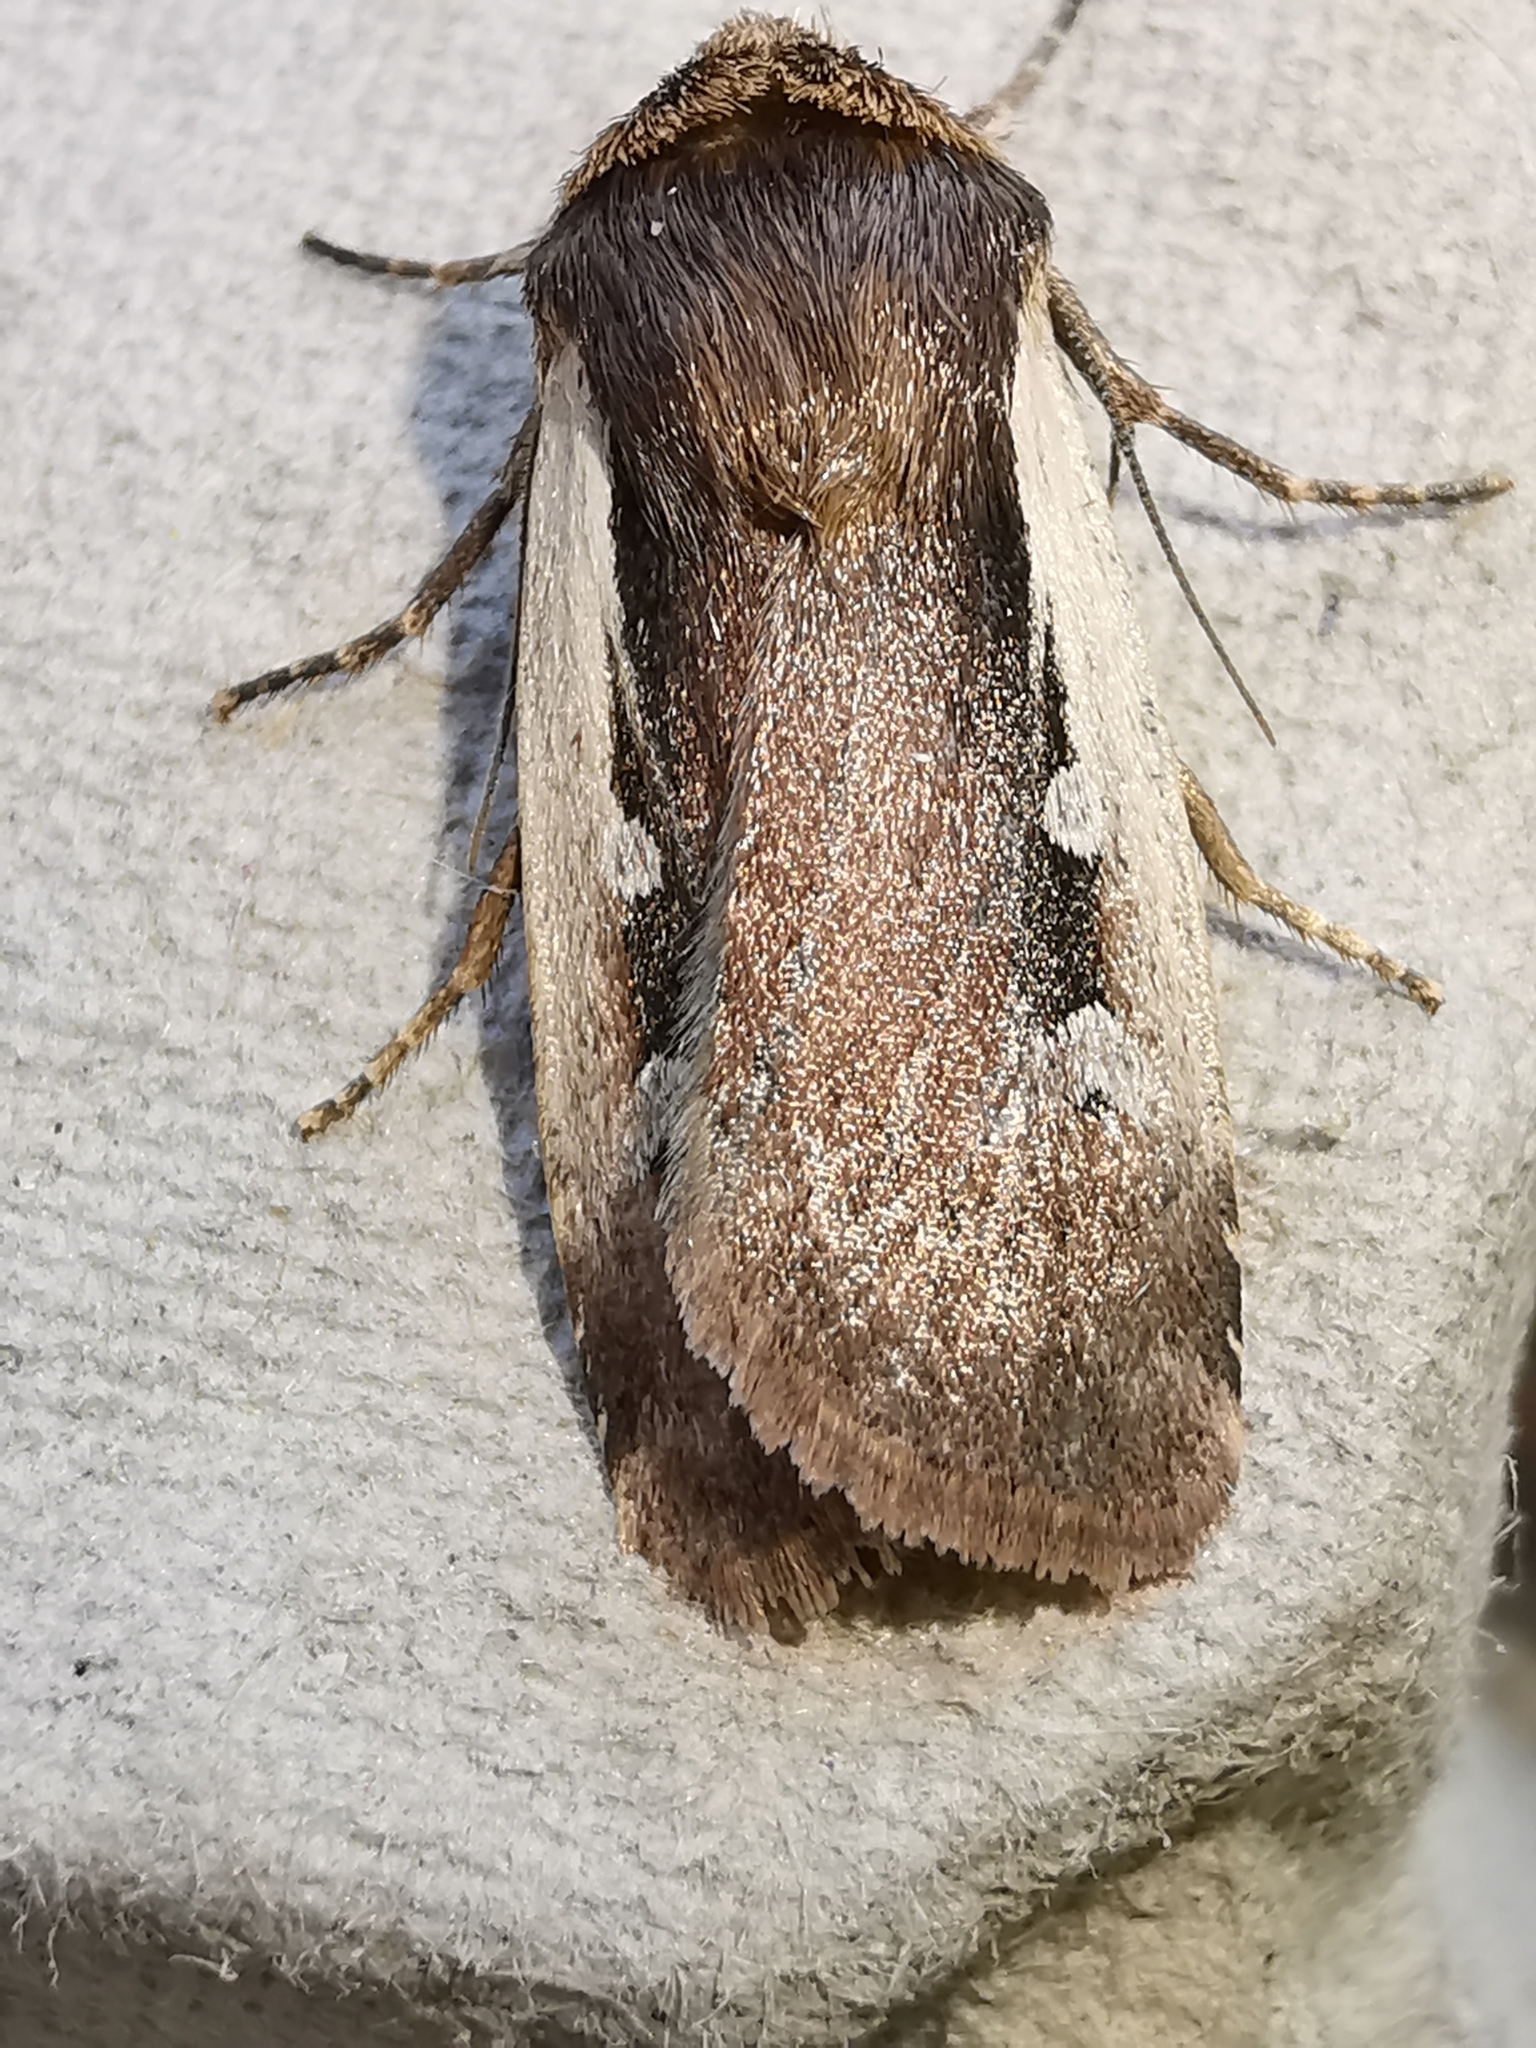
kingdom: Animalia
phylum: Arthropoda
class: Insecta
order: Lepidoptera
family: Noctuidae
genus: Ochropleura
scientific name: Ochropleura plecta
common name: Flame shoulder
